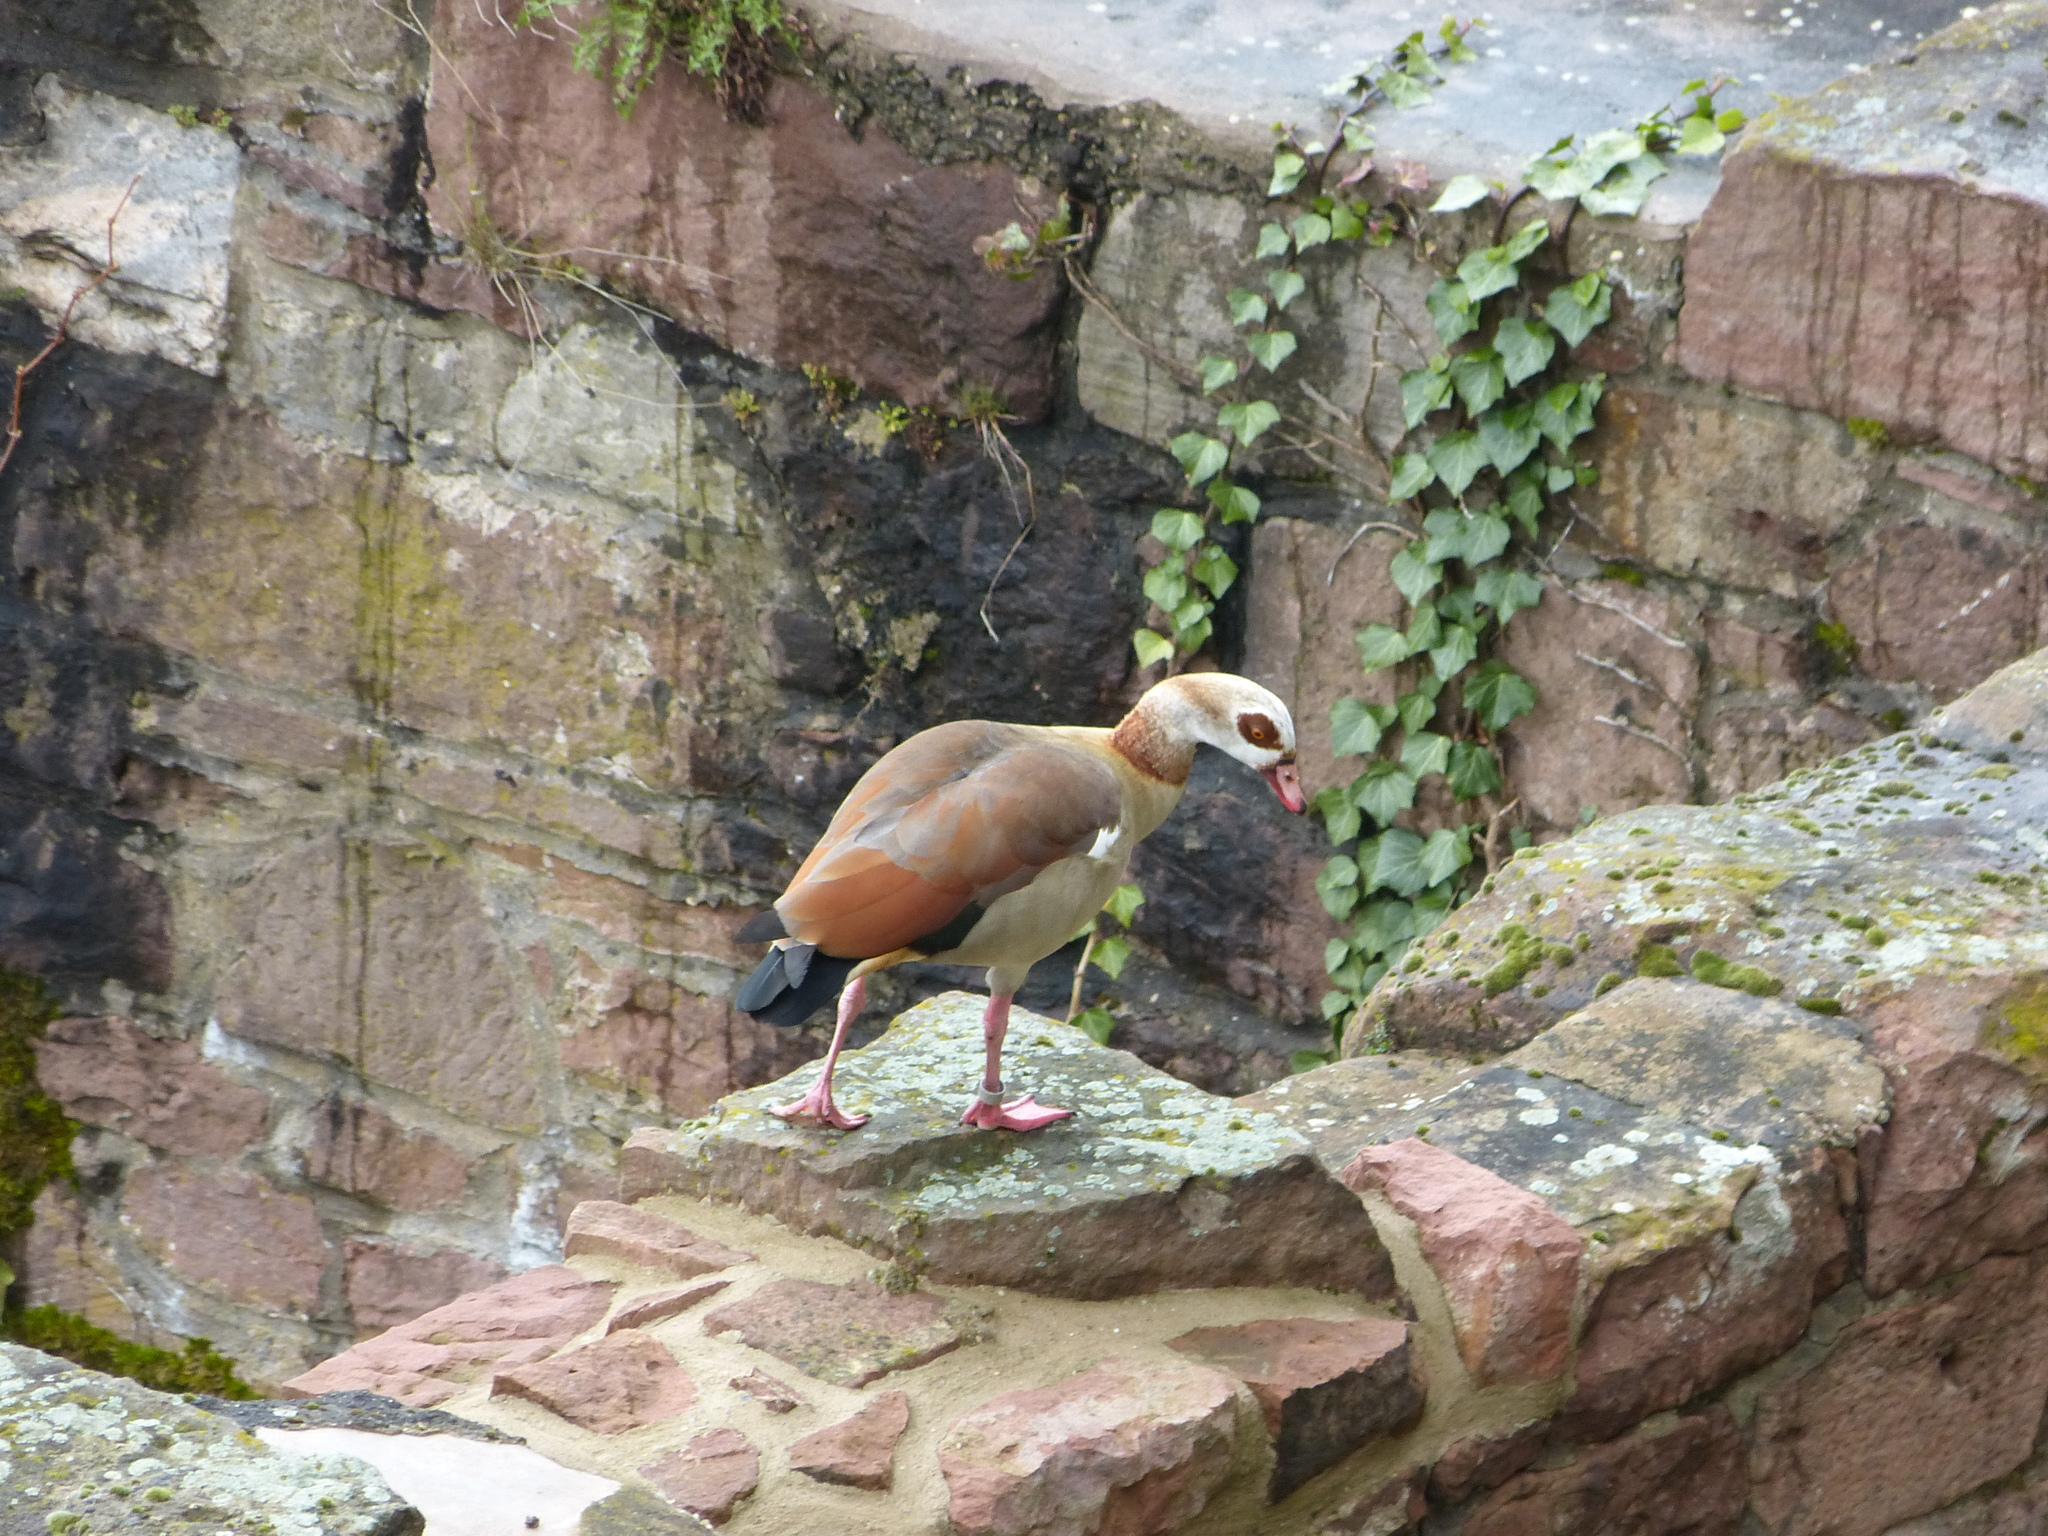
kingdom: Animalia
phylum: Chordata
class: Aves
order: Anseriformes
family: Anatidae
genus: Alopochen
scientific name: Alopochen aegyptiaca
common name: Egyptian goose
